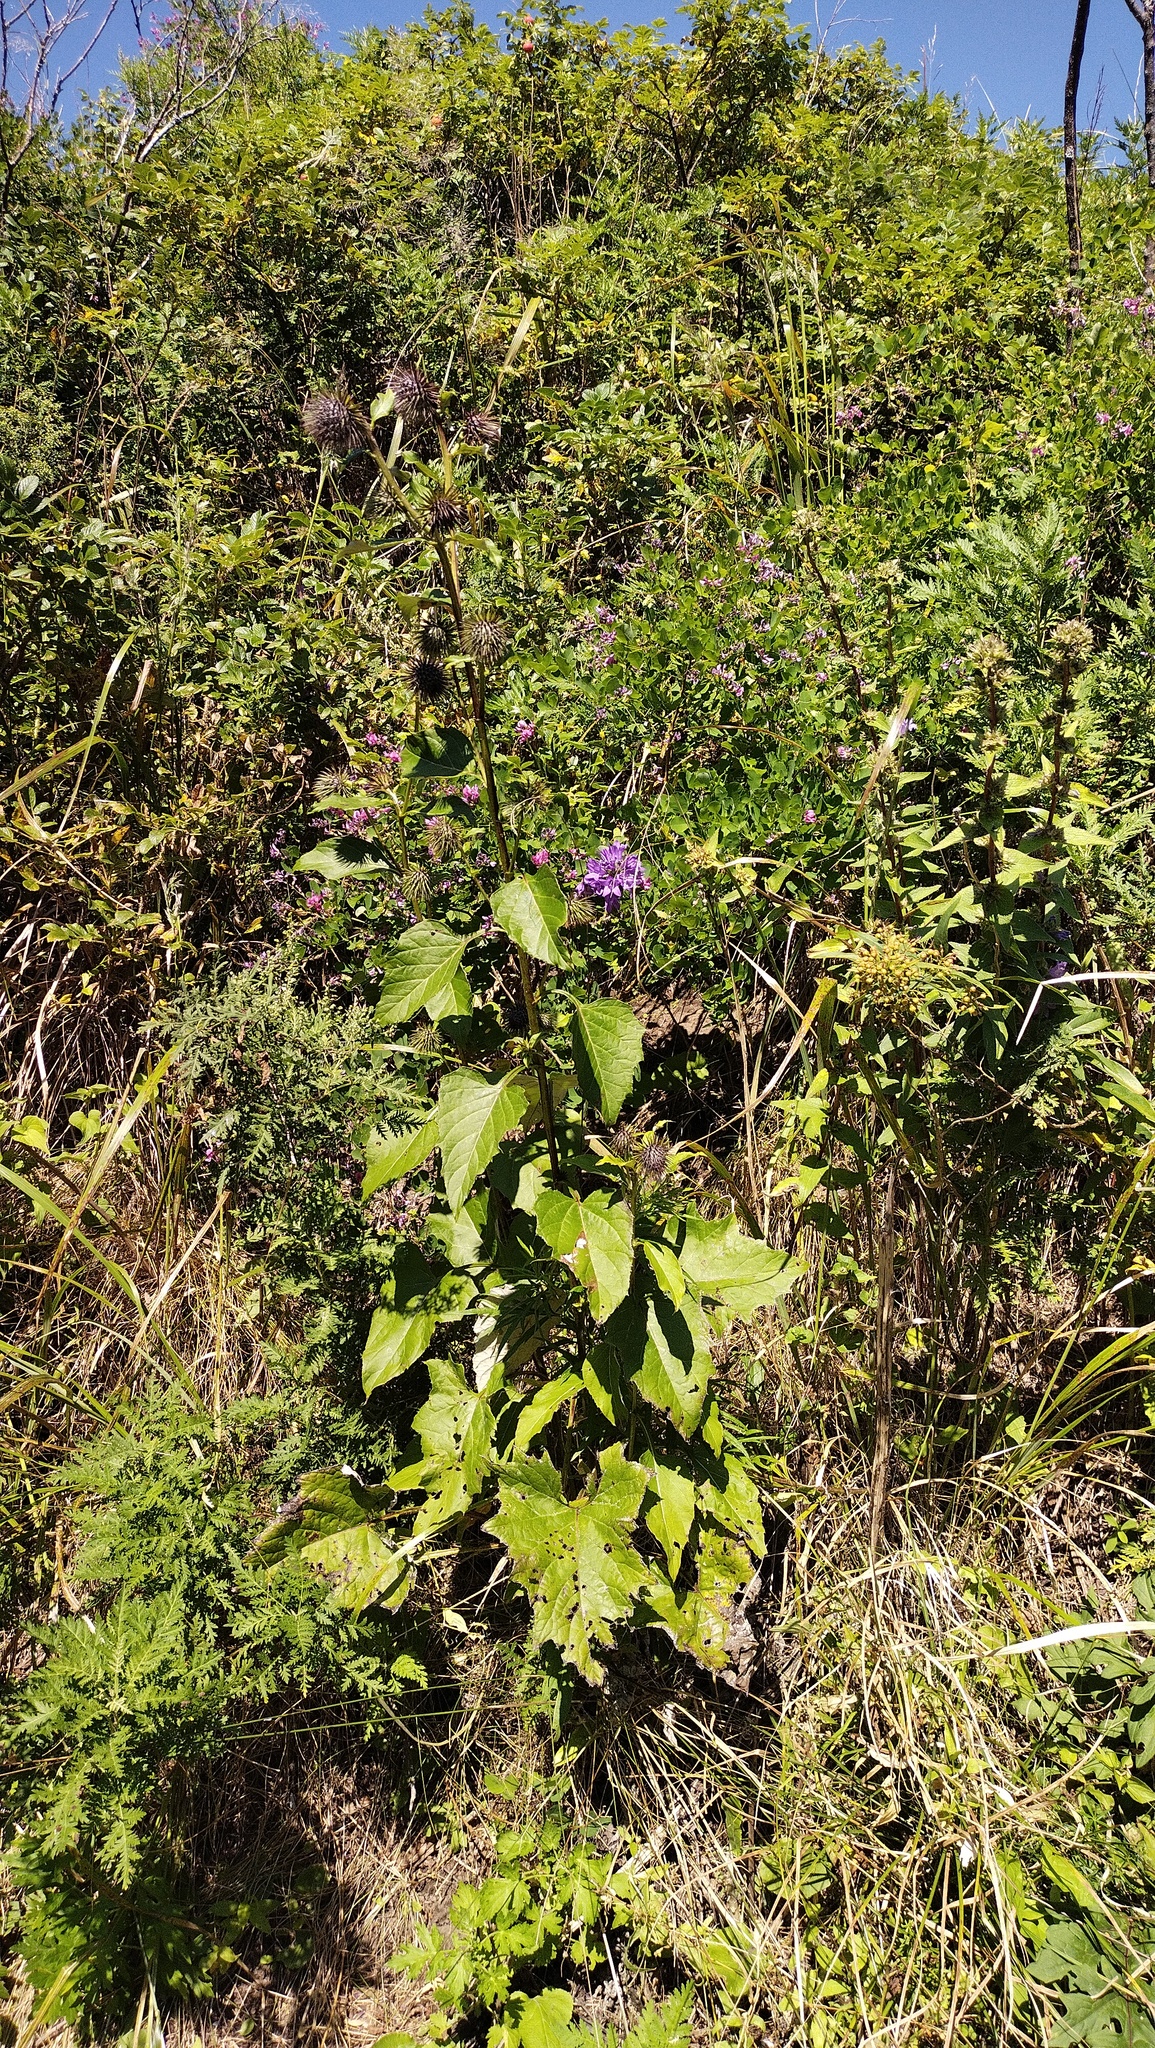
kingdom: Plantae
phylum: Tracheophyta
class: Magnoliopsida
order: Asterales
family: Asteraceae
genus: Synurus
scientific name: Synurus deltoides
